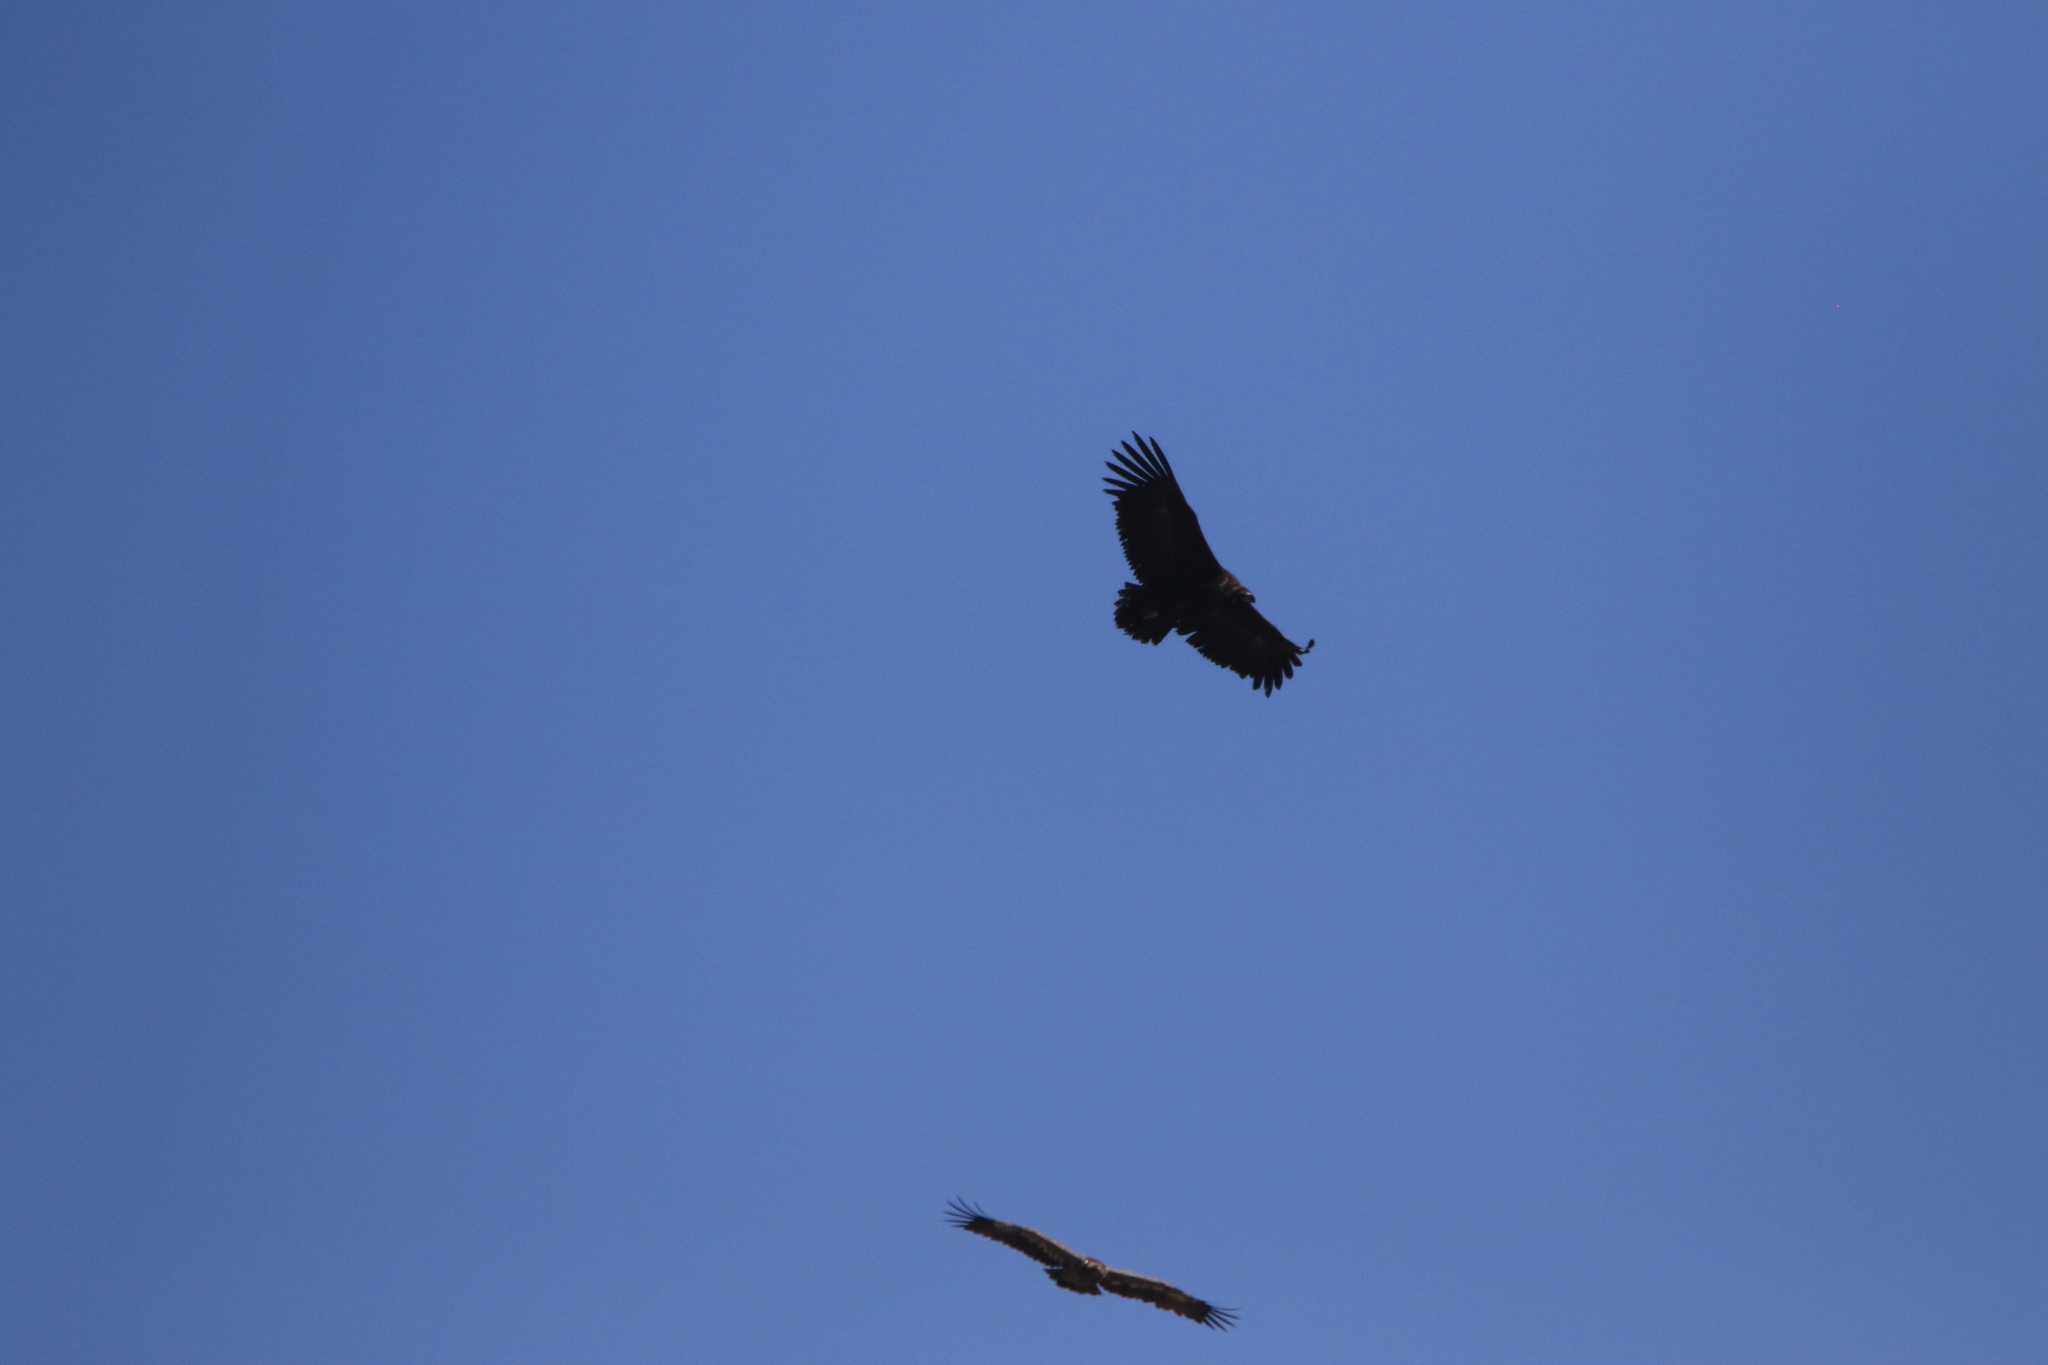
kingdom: Animalia
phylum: Chordata
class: Aves
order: Accipitriformes
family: Accipitridae
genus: Aegypius
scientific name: Aegypius monachus
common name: Cinereous vulture
